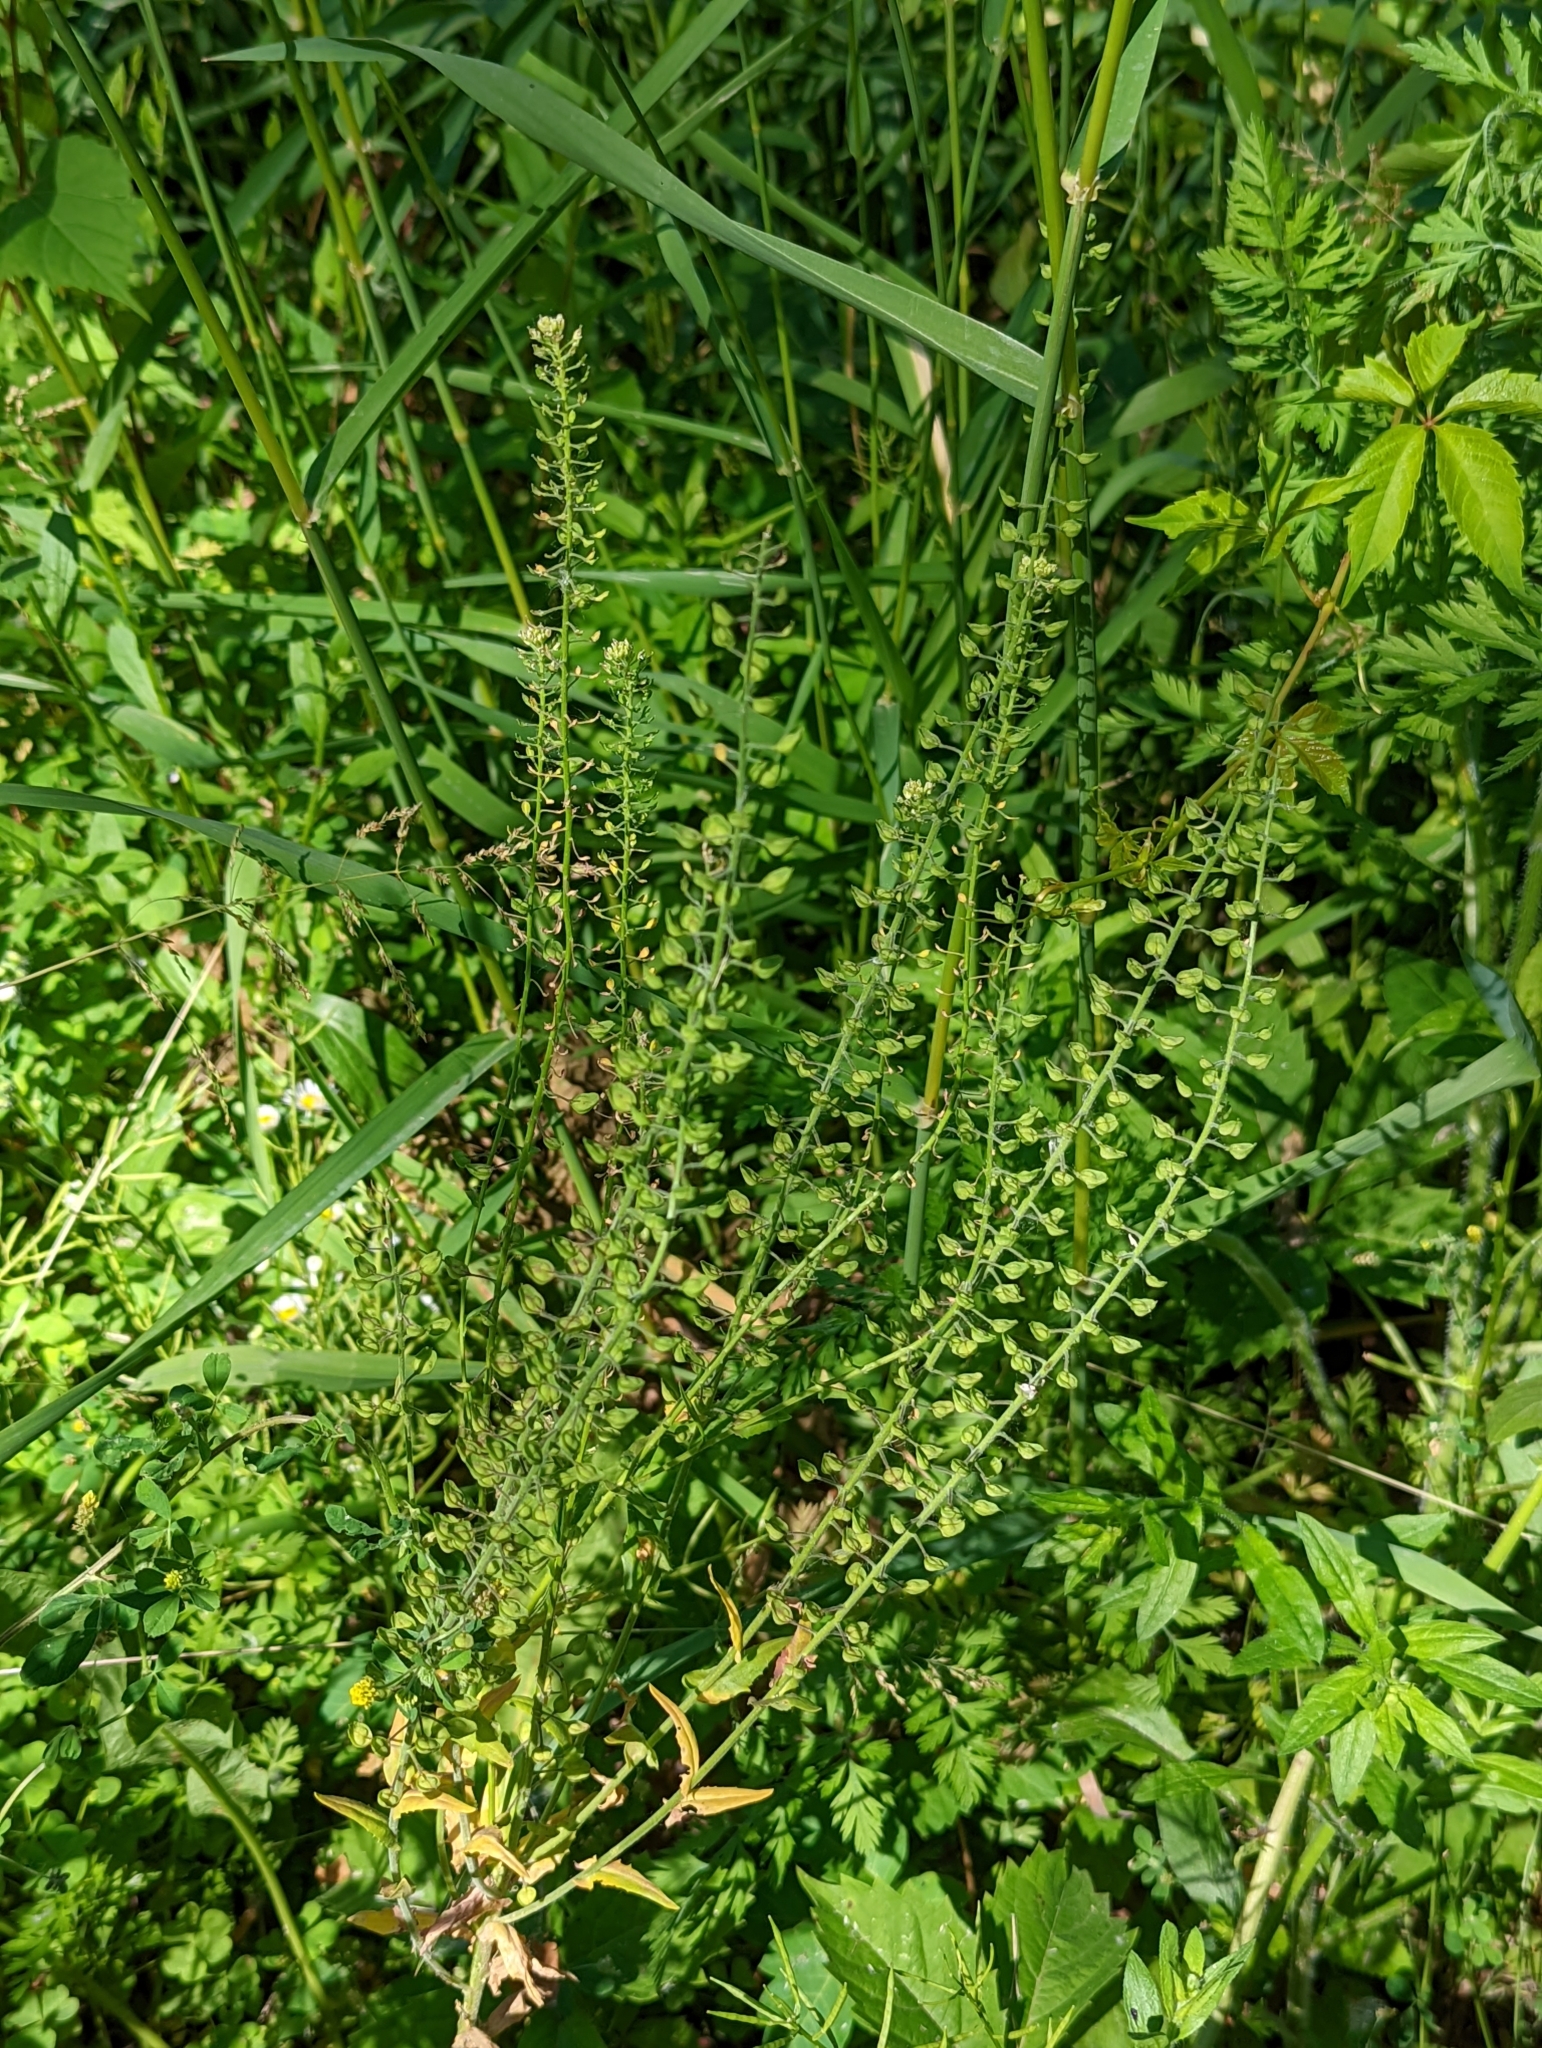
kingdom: Plantae
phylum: Tracheophyta
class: Magnoliopsida
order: Brassicales
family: Brassicaceae
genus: Lepidium
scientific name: Lepidium campestre
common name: Field pepperwort
